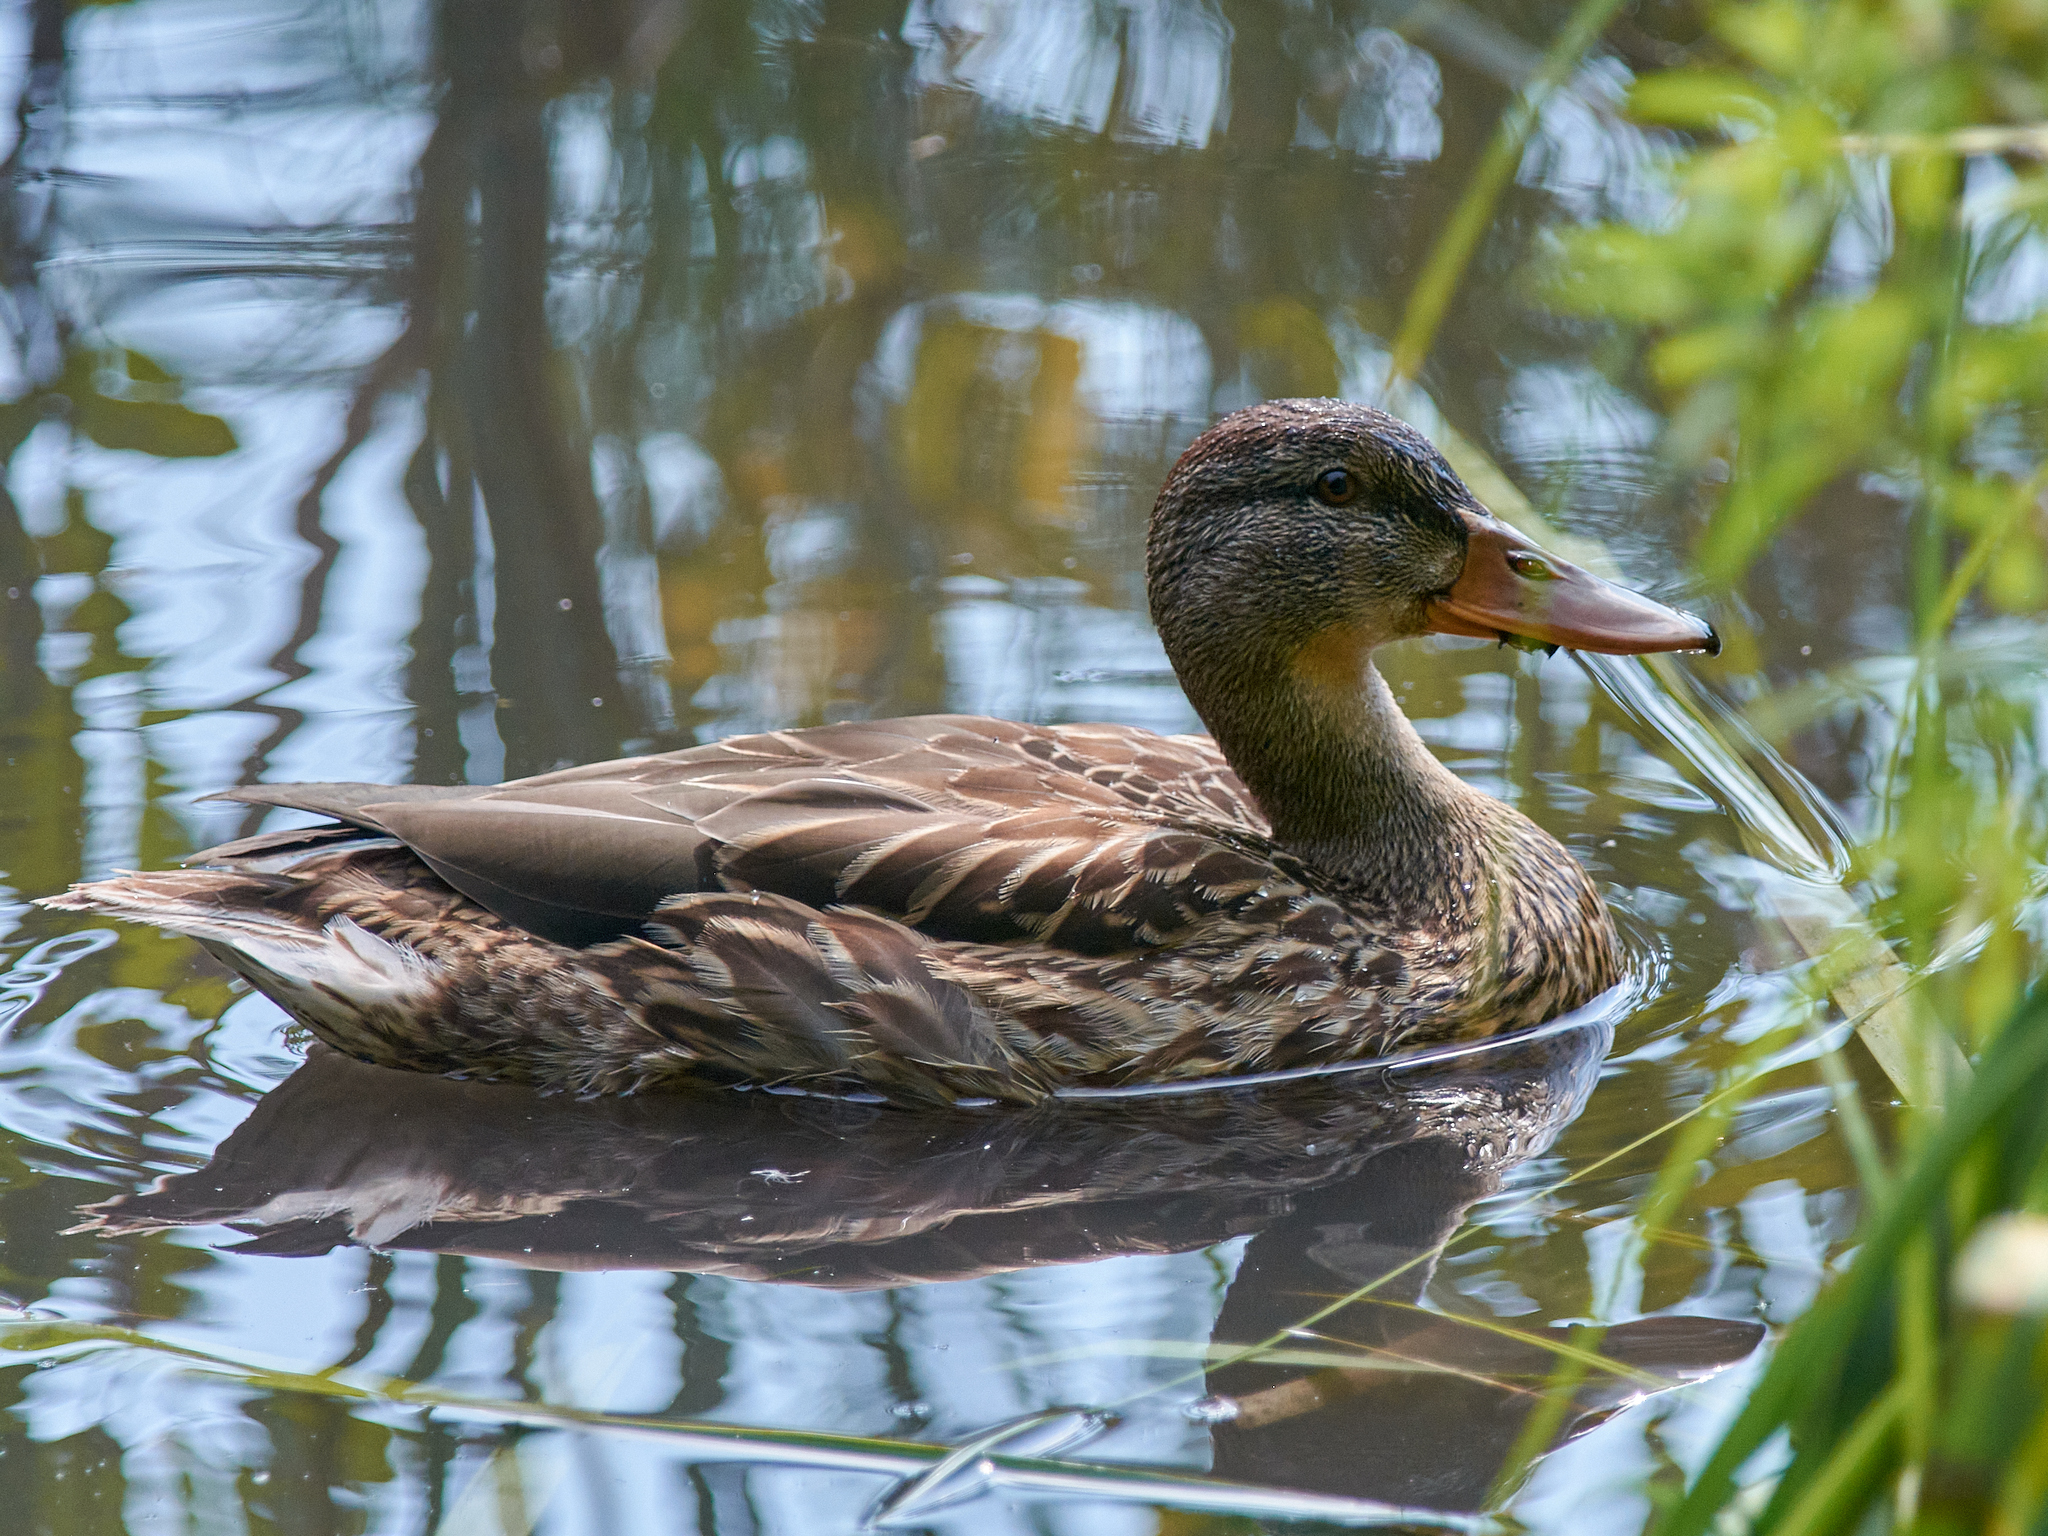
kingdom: Animalia
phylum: Chordata
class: Aves
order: Anseriformes
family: Anatidae
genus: Anas
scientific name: Anas platyrhynchos
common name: Mallard
